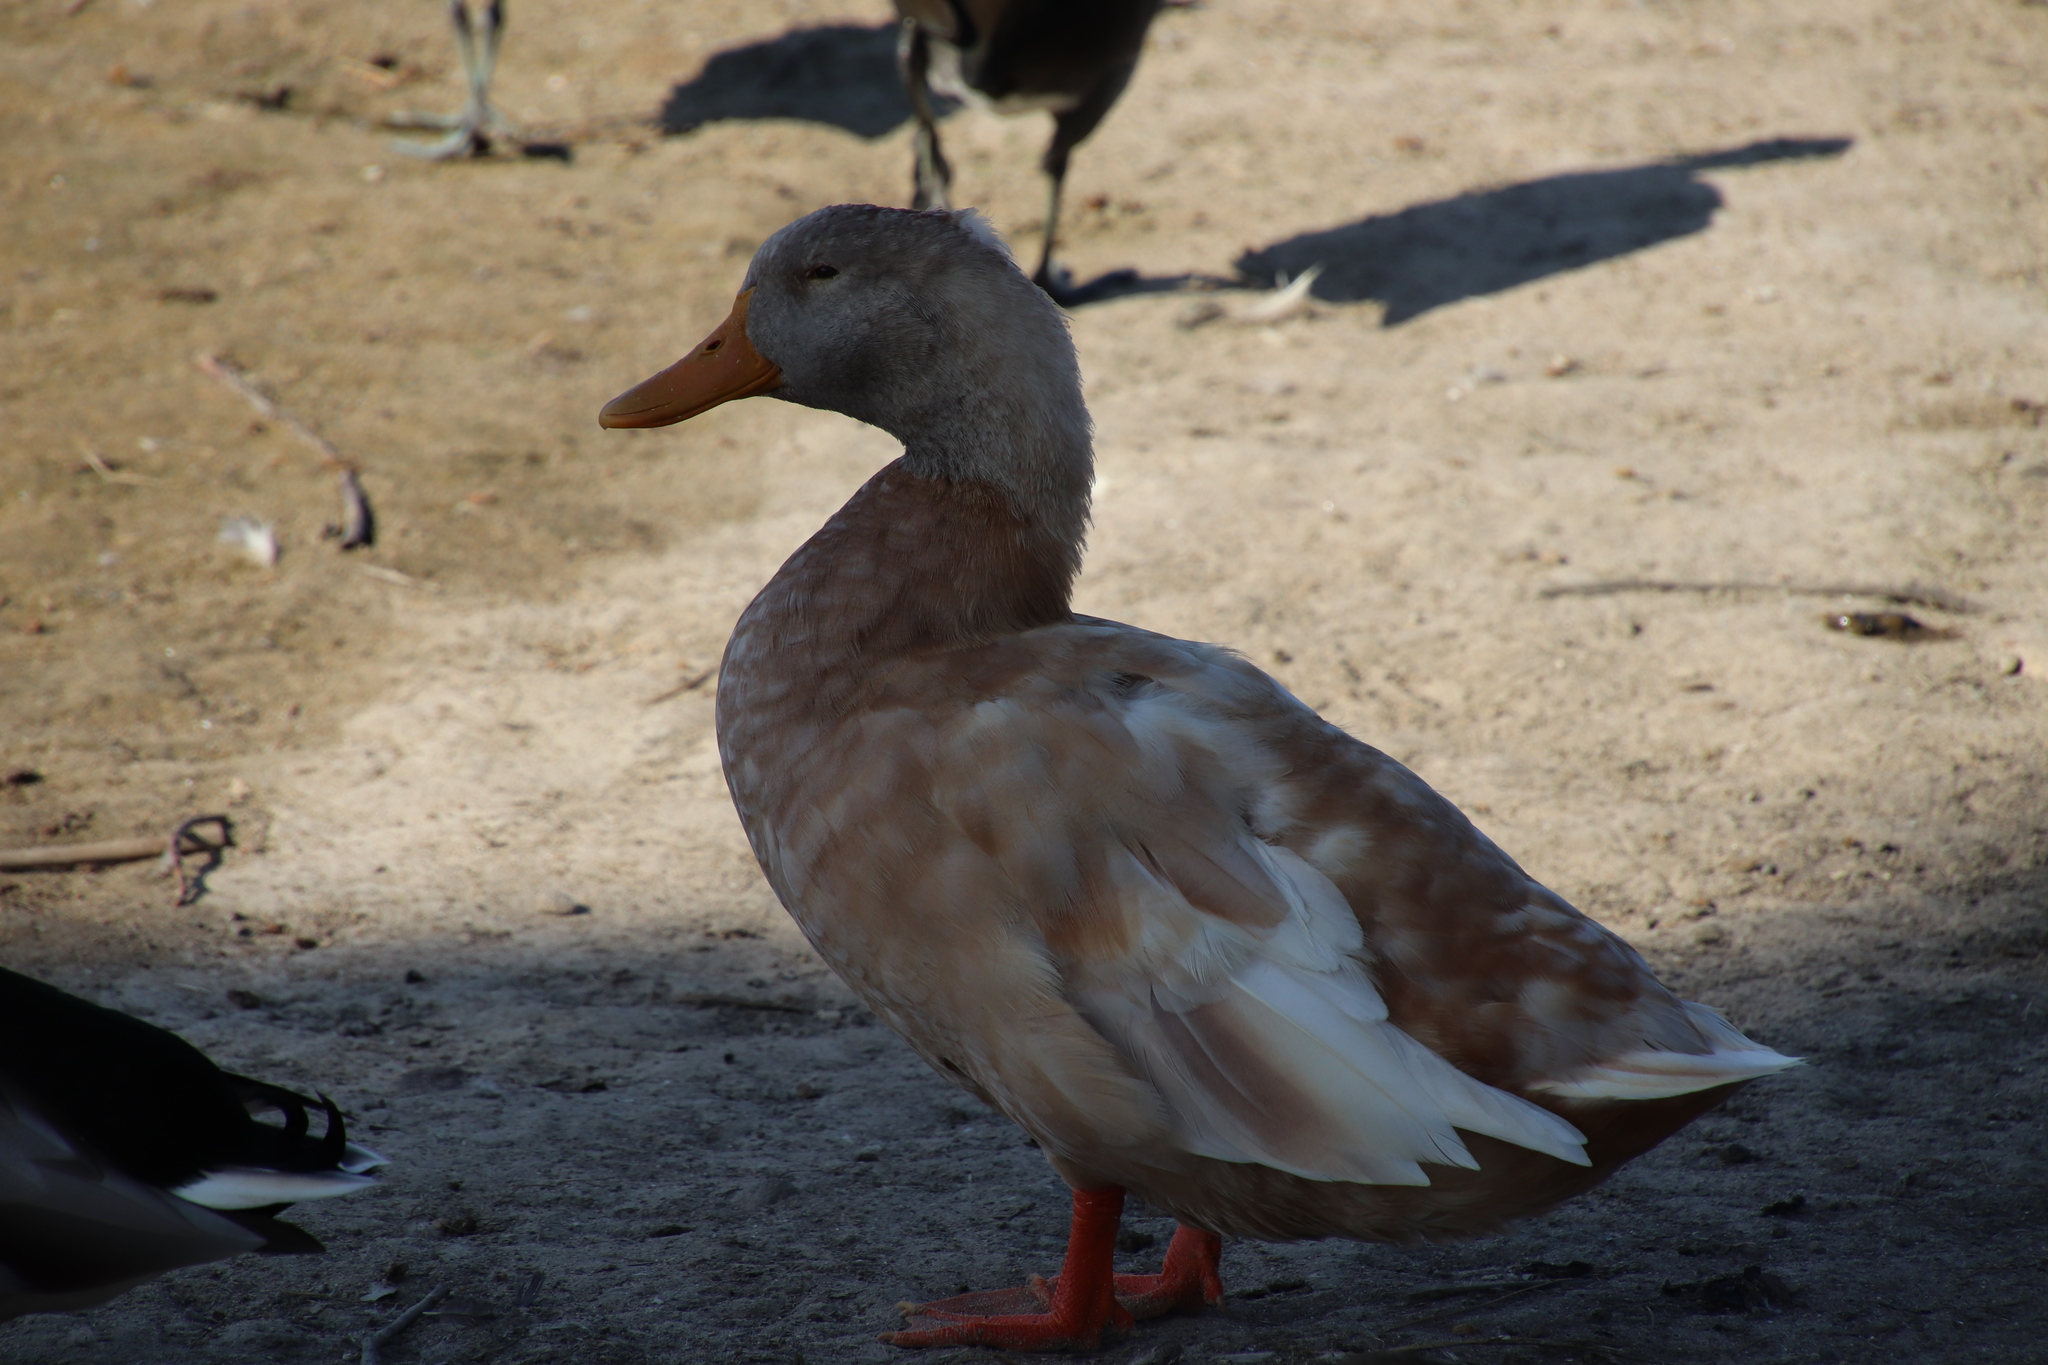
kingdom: Animalia
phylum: Chordata
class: Aves
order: Anseriformes
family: Anatidae
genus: Anas
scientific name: Anas platyrhynchos
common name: Mallard
